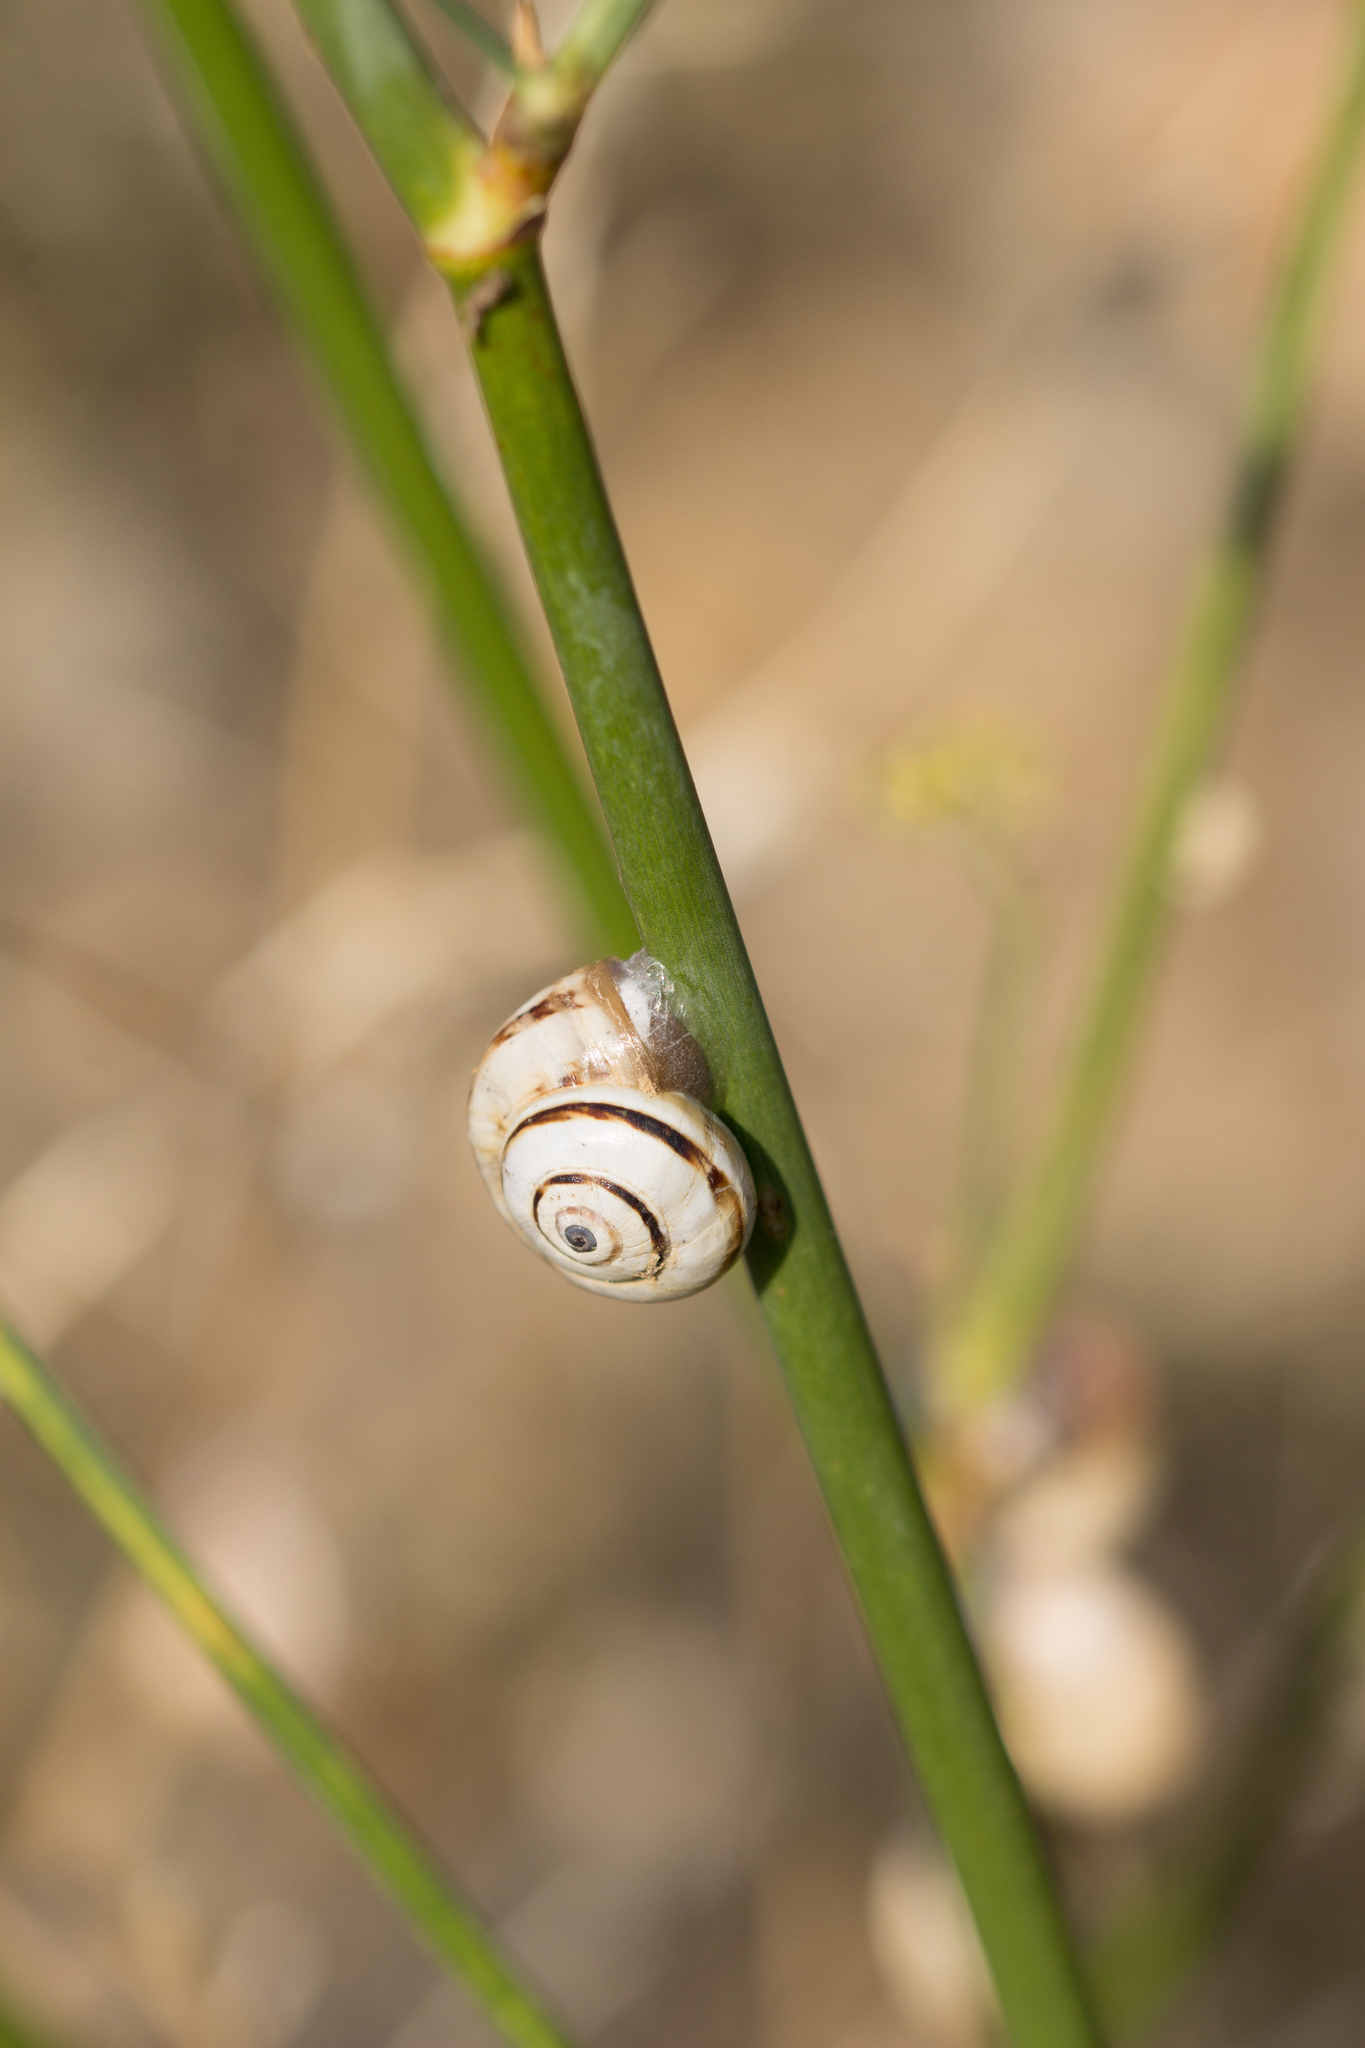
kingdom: Animalia
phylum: Mollusca
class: Gastropoda
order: Stylommatophora
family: Helicidae
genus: Theba
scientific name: Theba pisana
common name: White snail
